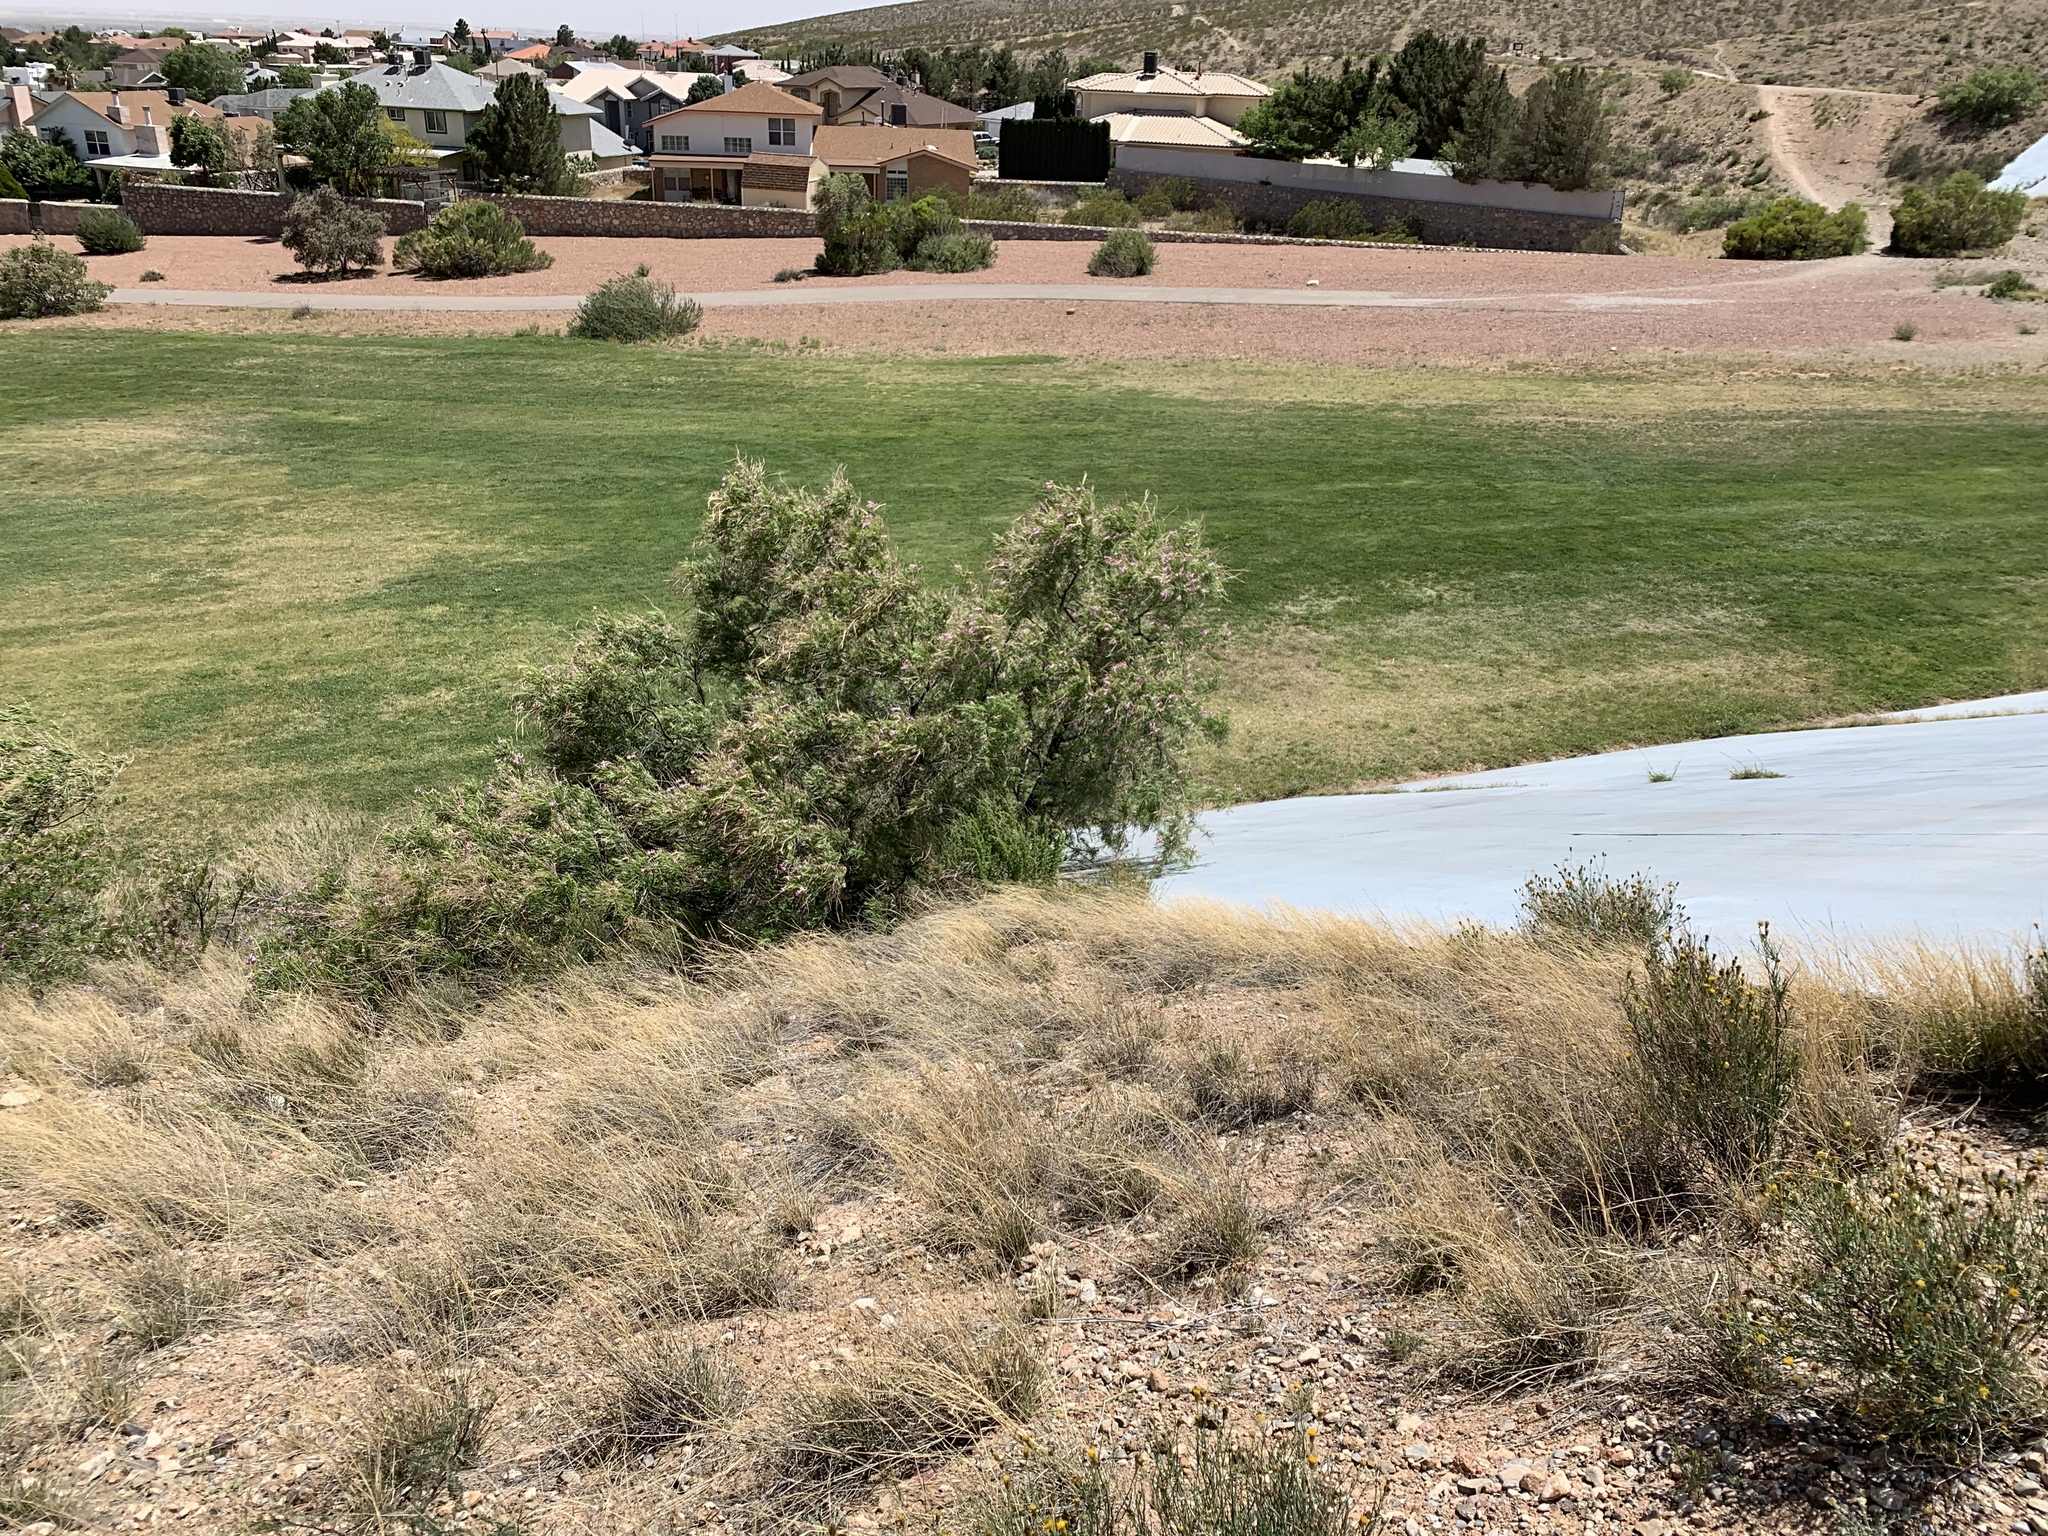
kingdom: Plantae
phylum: Tracheophyta
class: Magnoliopsida
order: Lamiales
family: Bignoniaceae
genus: Chilopsis
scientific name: Chilopsis linearis
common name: Desert-willow
